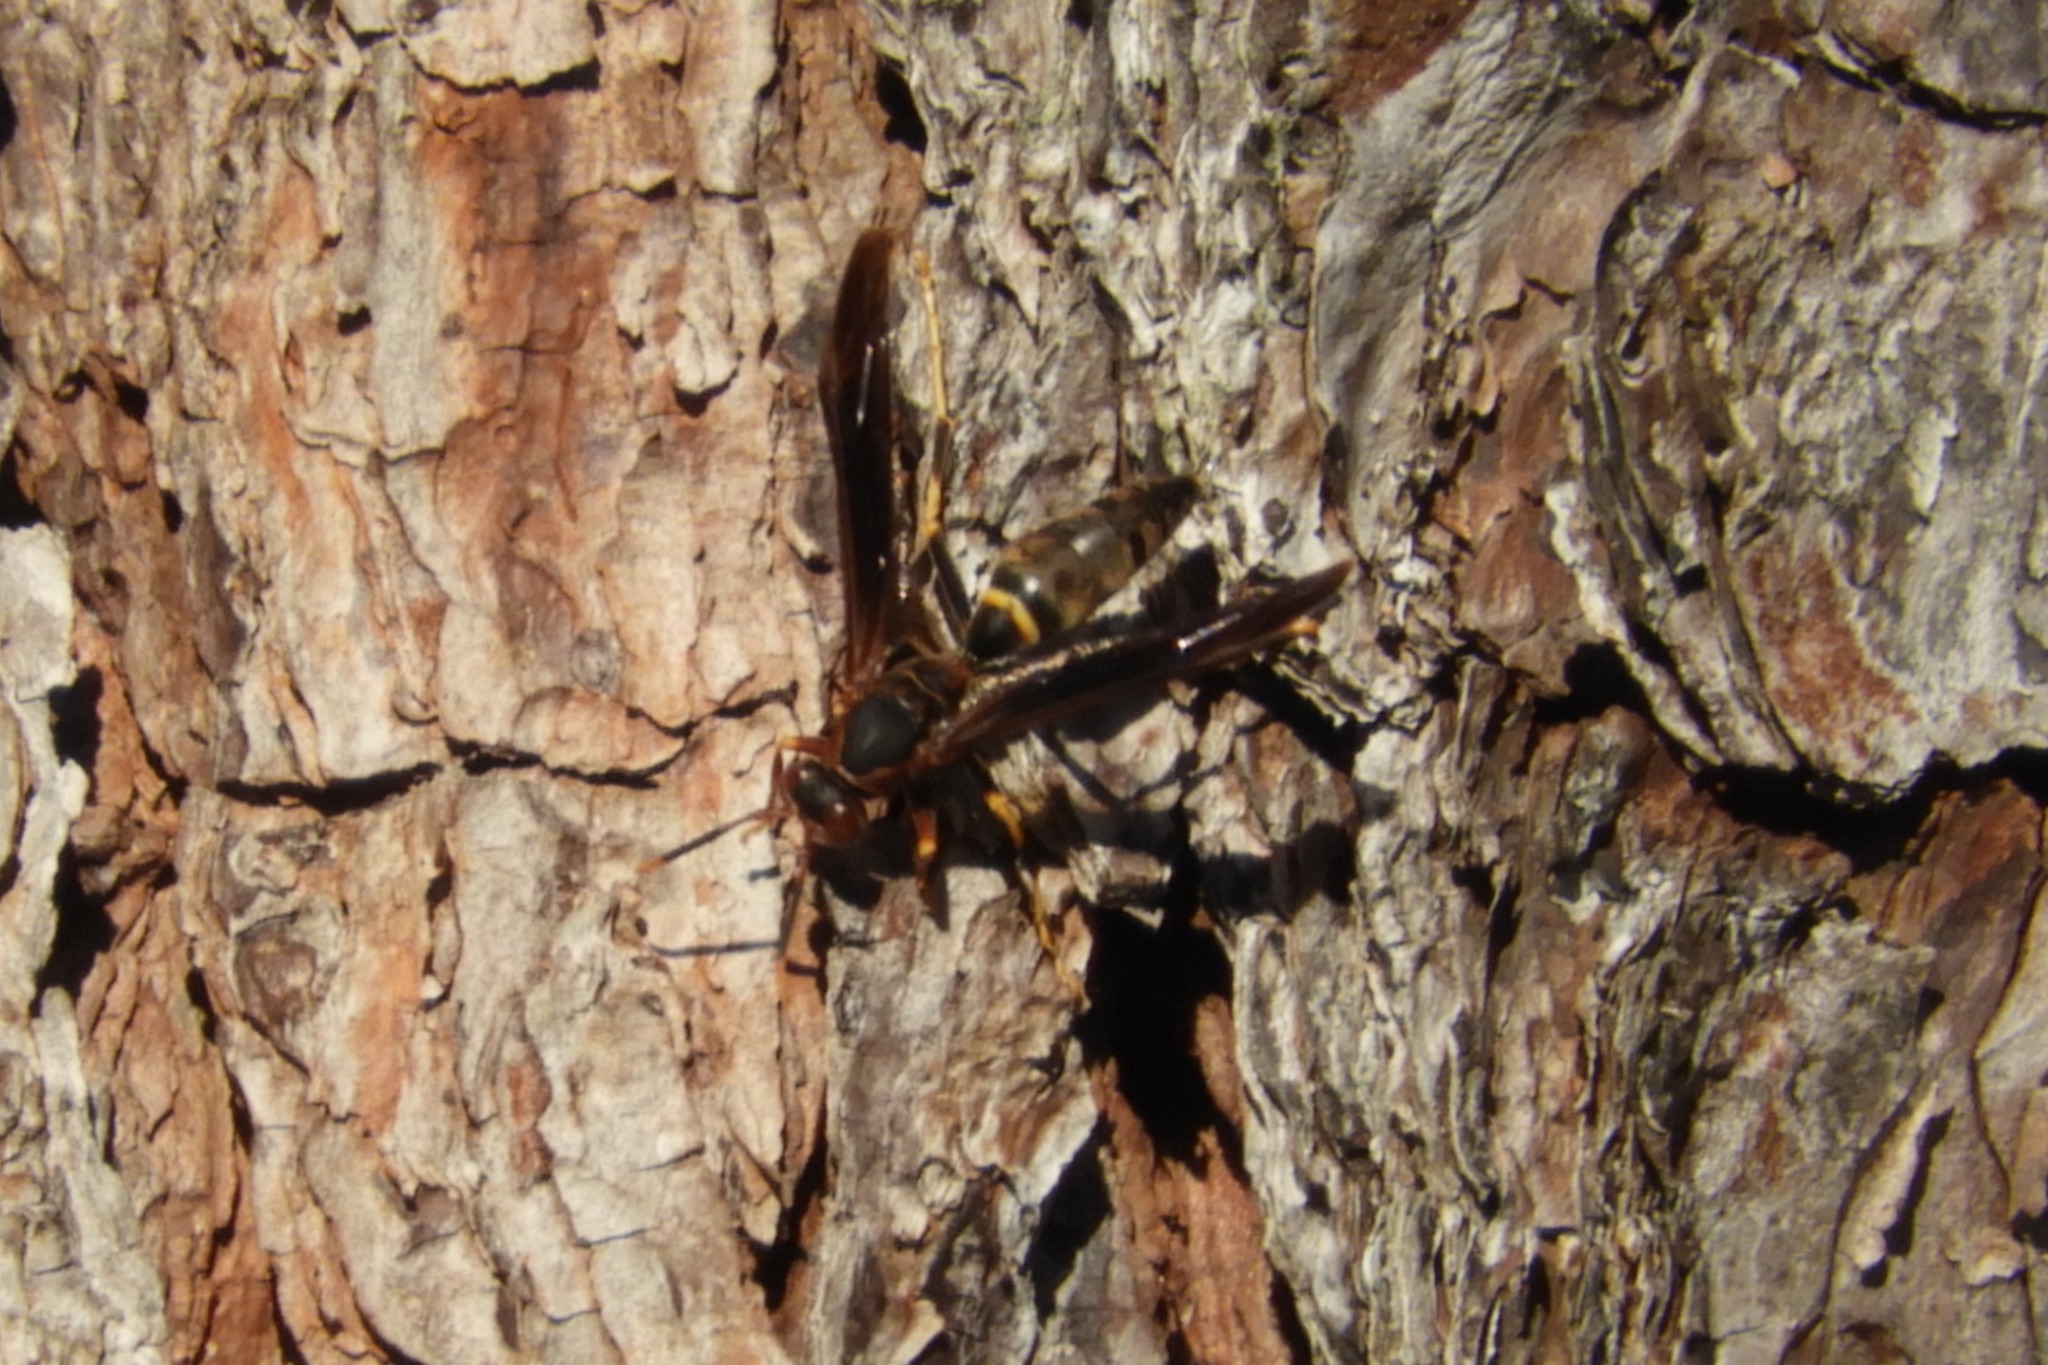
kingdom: Animalia
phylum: Arthropoda
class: Insecta
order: Hymenoptera
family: Eumenidae
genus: Polistes
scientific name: Polistes annularis
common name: Ringed paper wasp
